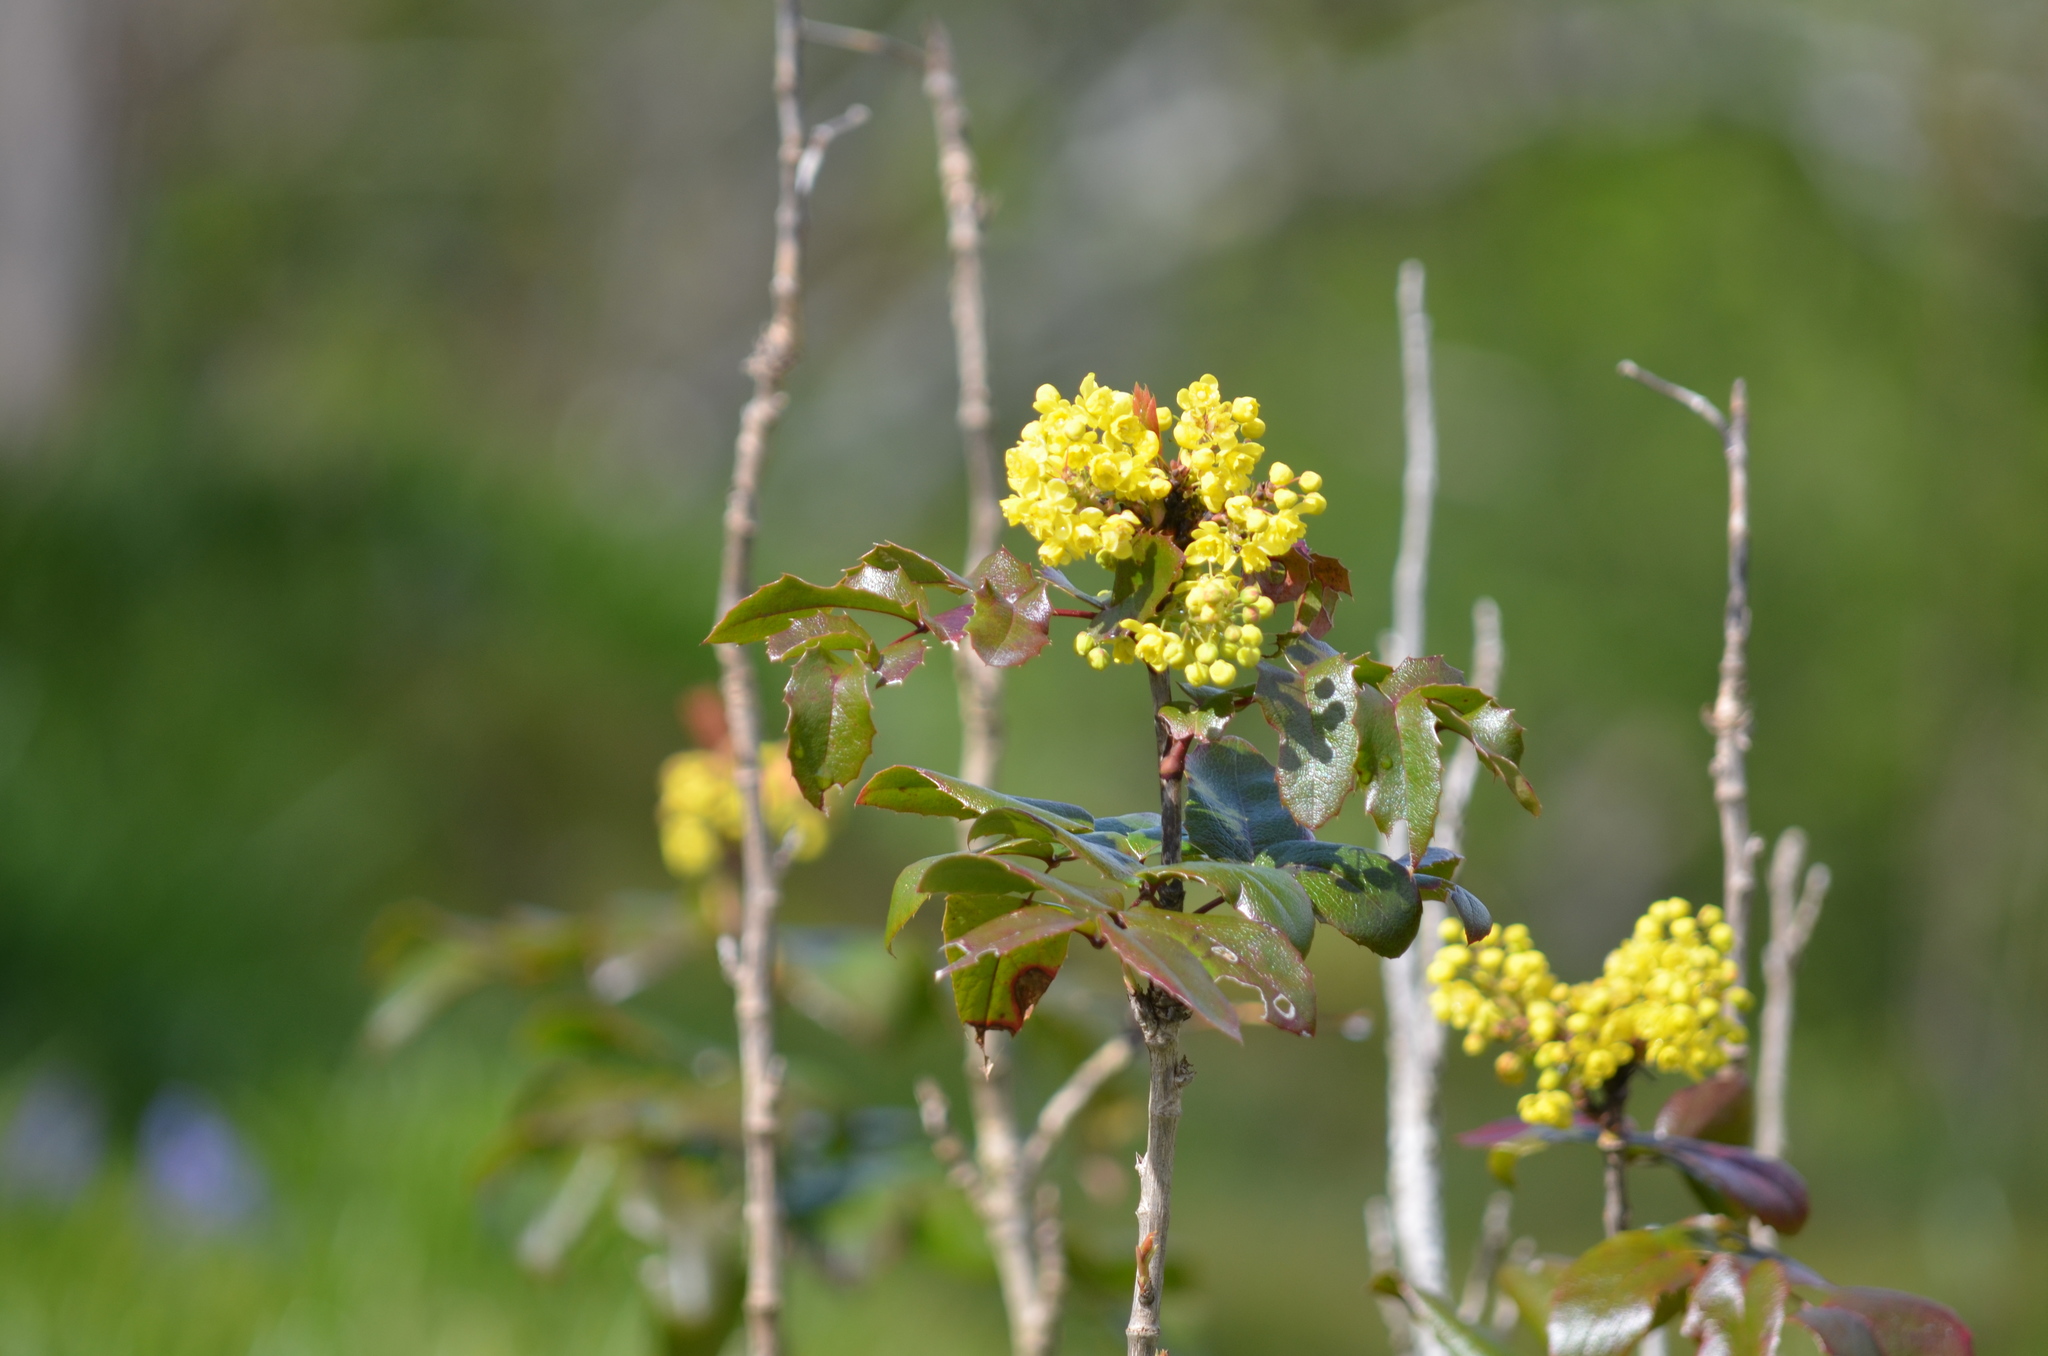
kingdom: Plantae
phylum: Tracheophyta
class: Magnoliopsida
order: Ranunculales
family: Berberidaceae
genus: Mahonia
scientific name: Mahonia aquifolium
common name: Oregon-grape
